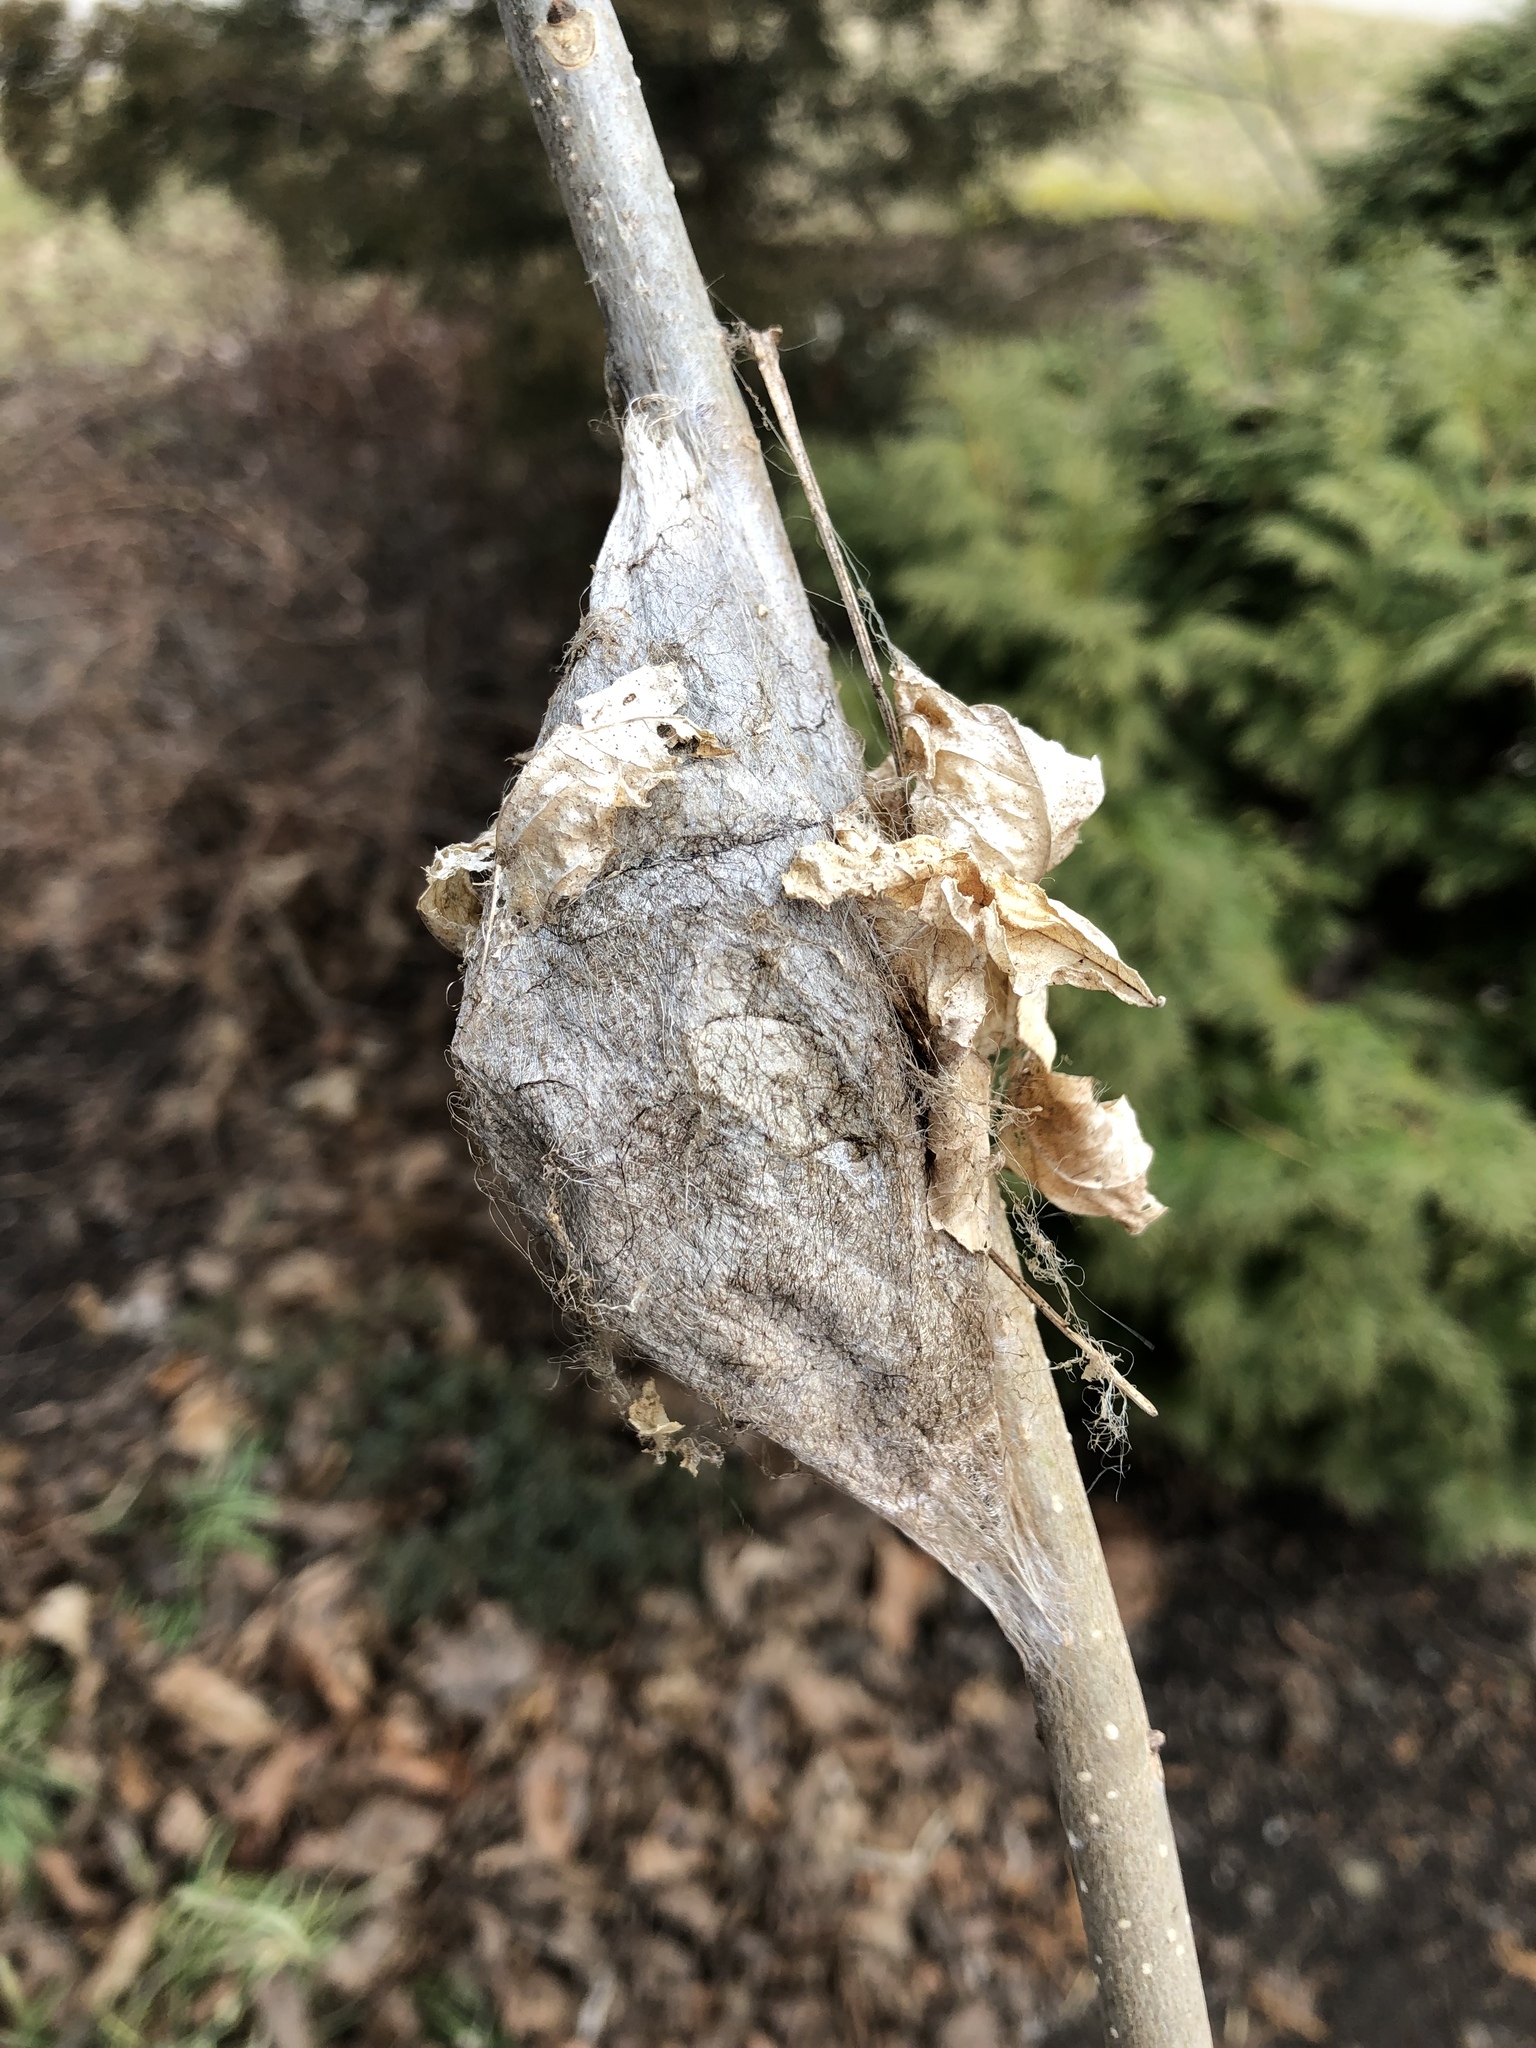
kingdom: Animalia
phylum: Arthropoda
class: Insecta
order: Lepidoptera
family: Saturniidae
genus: Hyalophora
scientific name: Hyalophora cecropia
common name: Cecropia silkmoth
